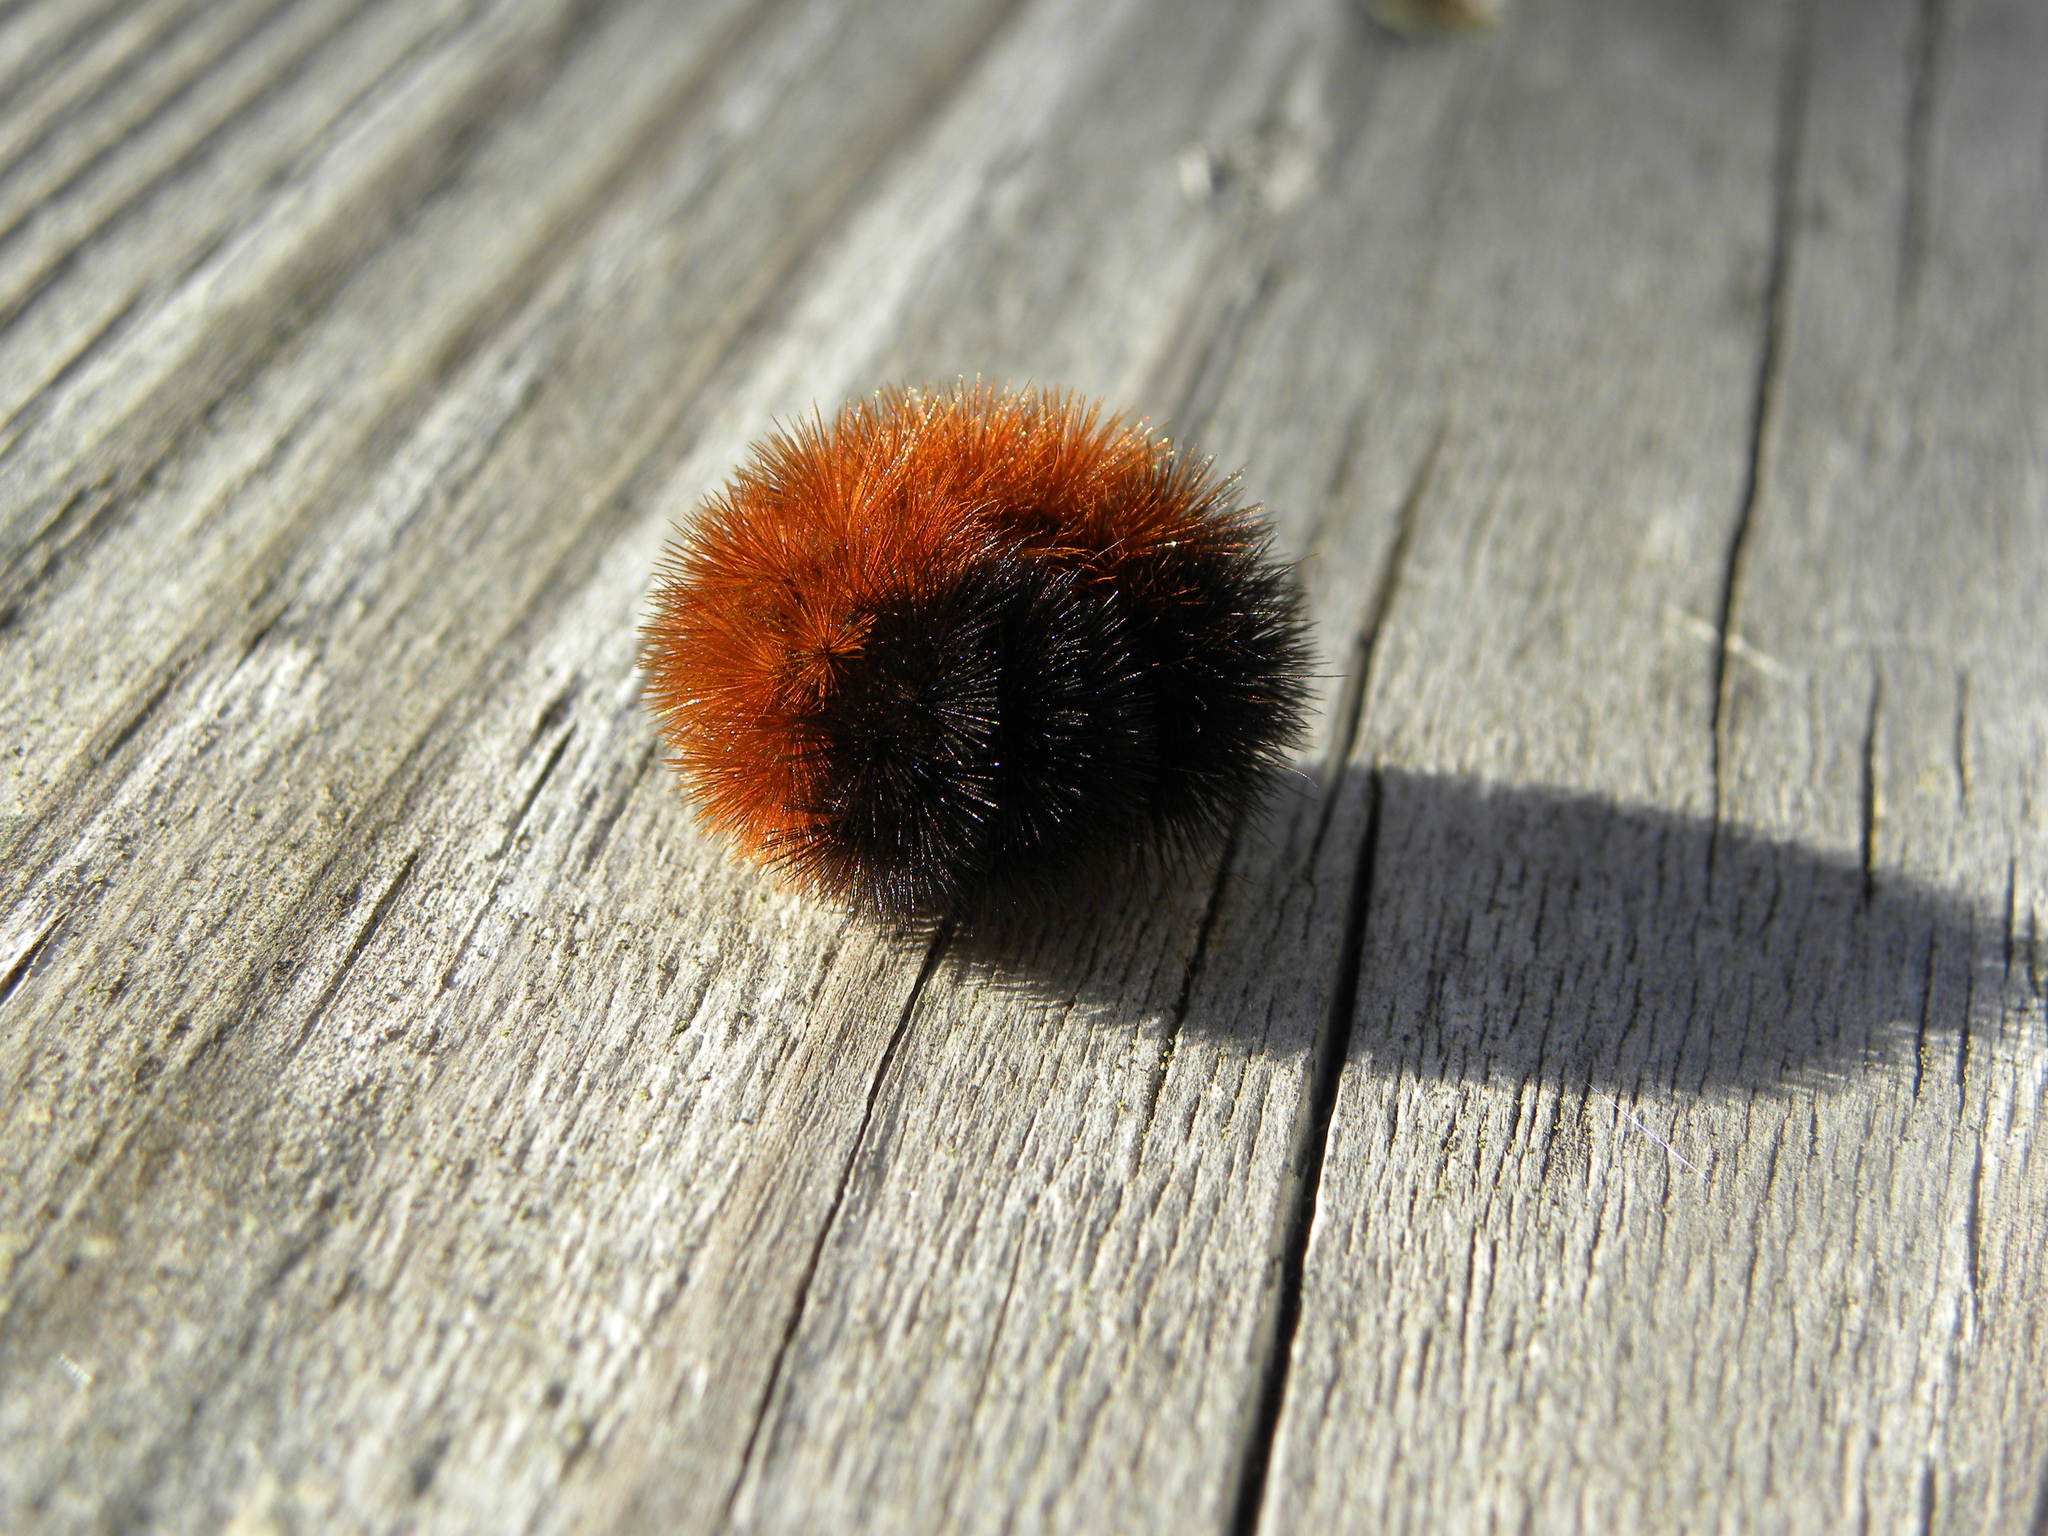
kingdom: Animalia
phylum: Arthropoda
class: Insecta
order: Lepidoptera
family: Erebidae
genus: Pyrrharctia
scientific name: Pyrrharctia isabella
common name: Isabella tiger moth
